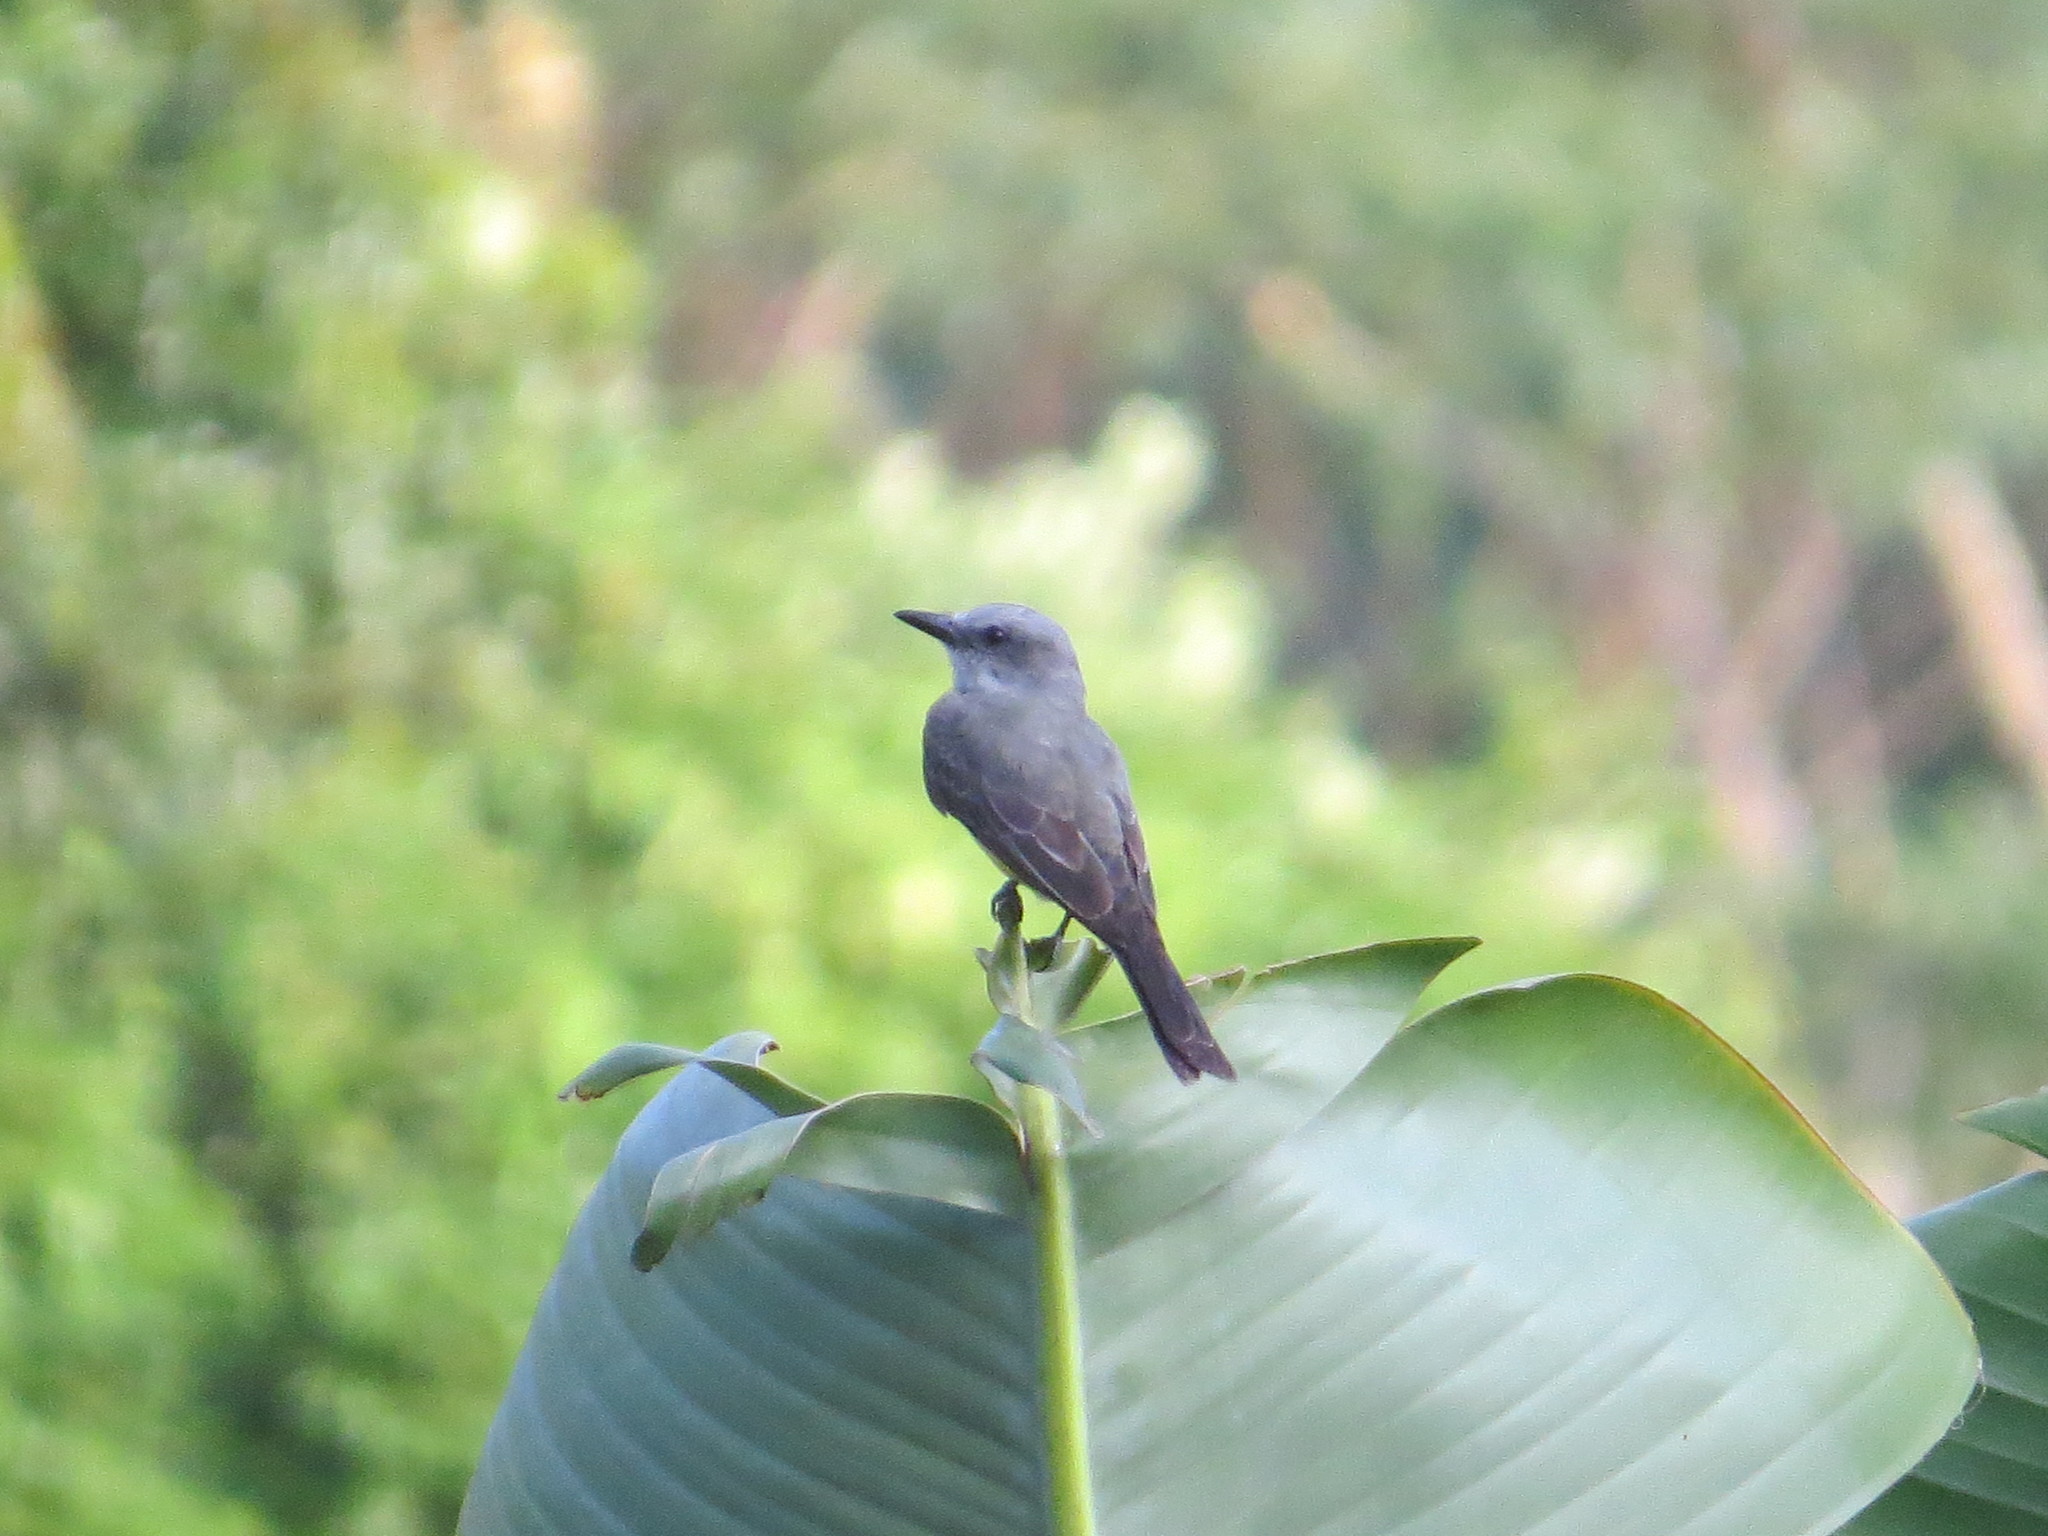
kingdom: Animalia
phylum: Chordata
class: Aves
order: Passeriformes
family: Tyrannidae
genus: Tyrannus
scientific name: Tyrannus melancholicus
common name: Tropical kingbird
